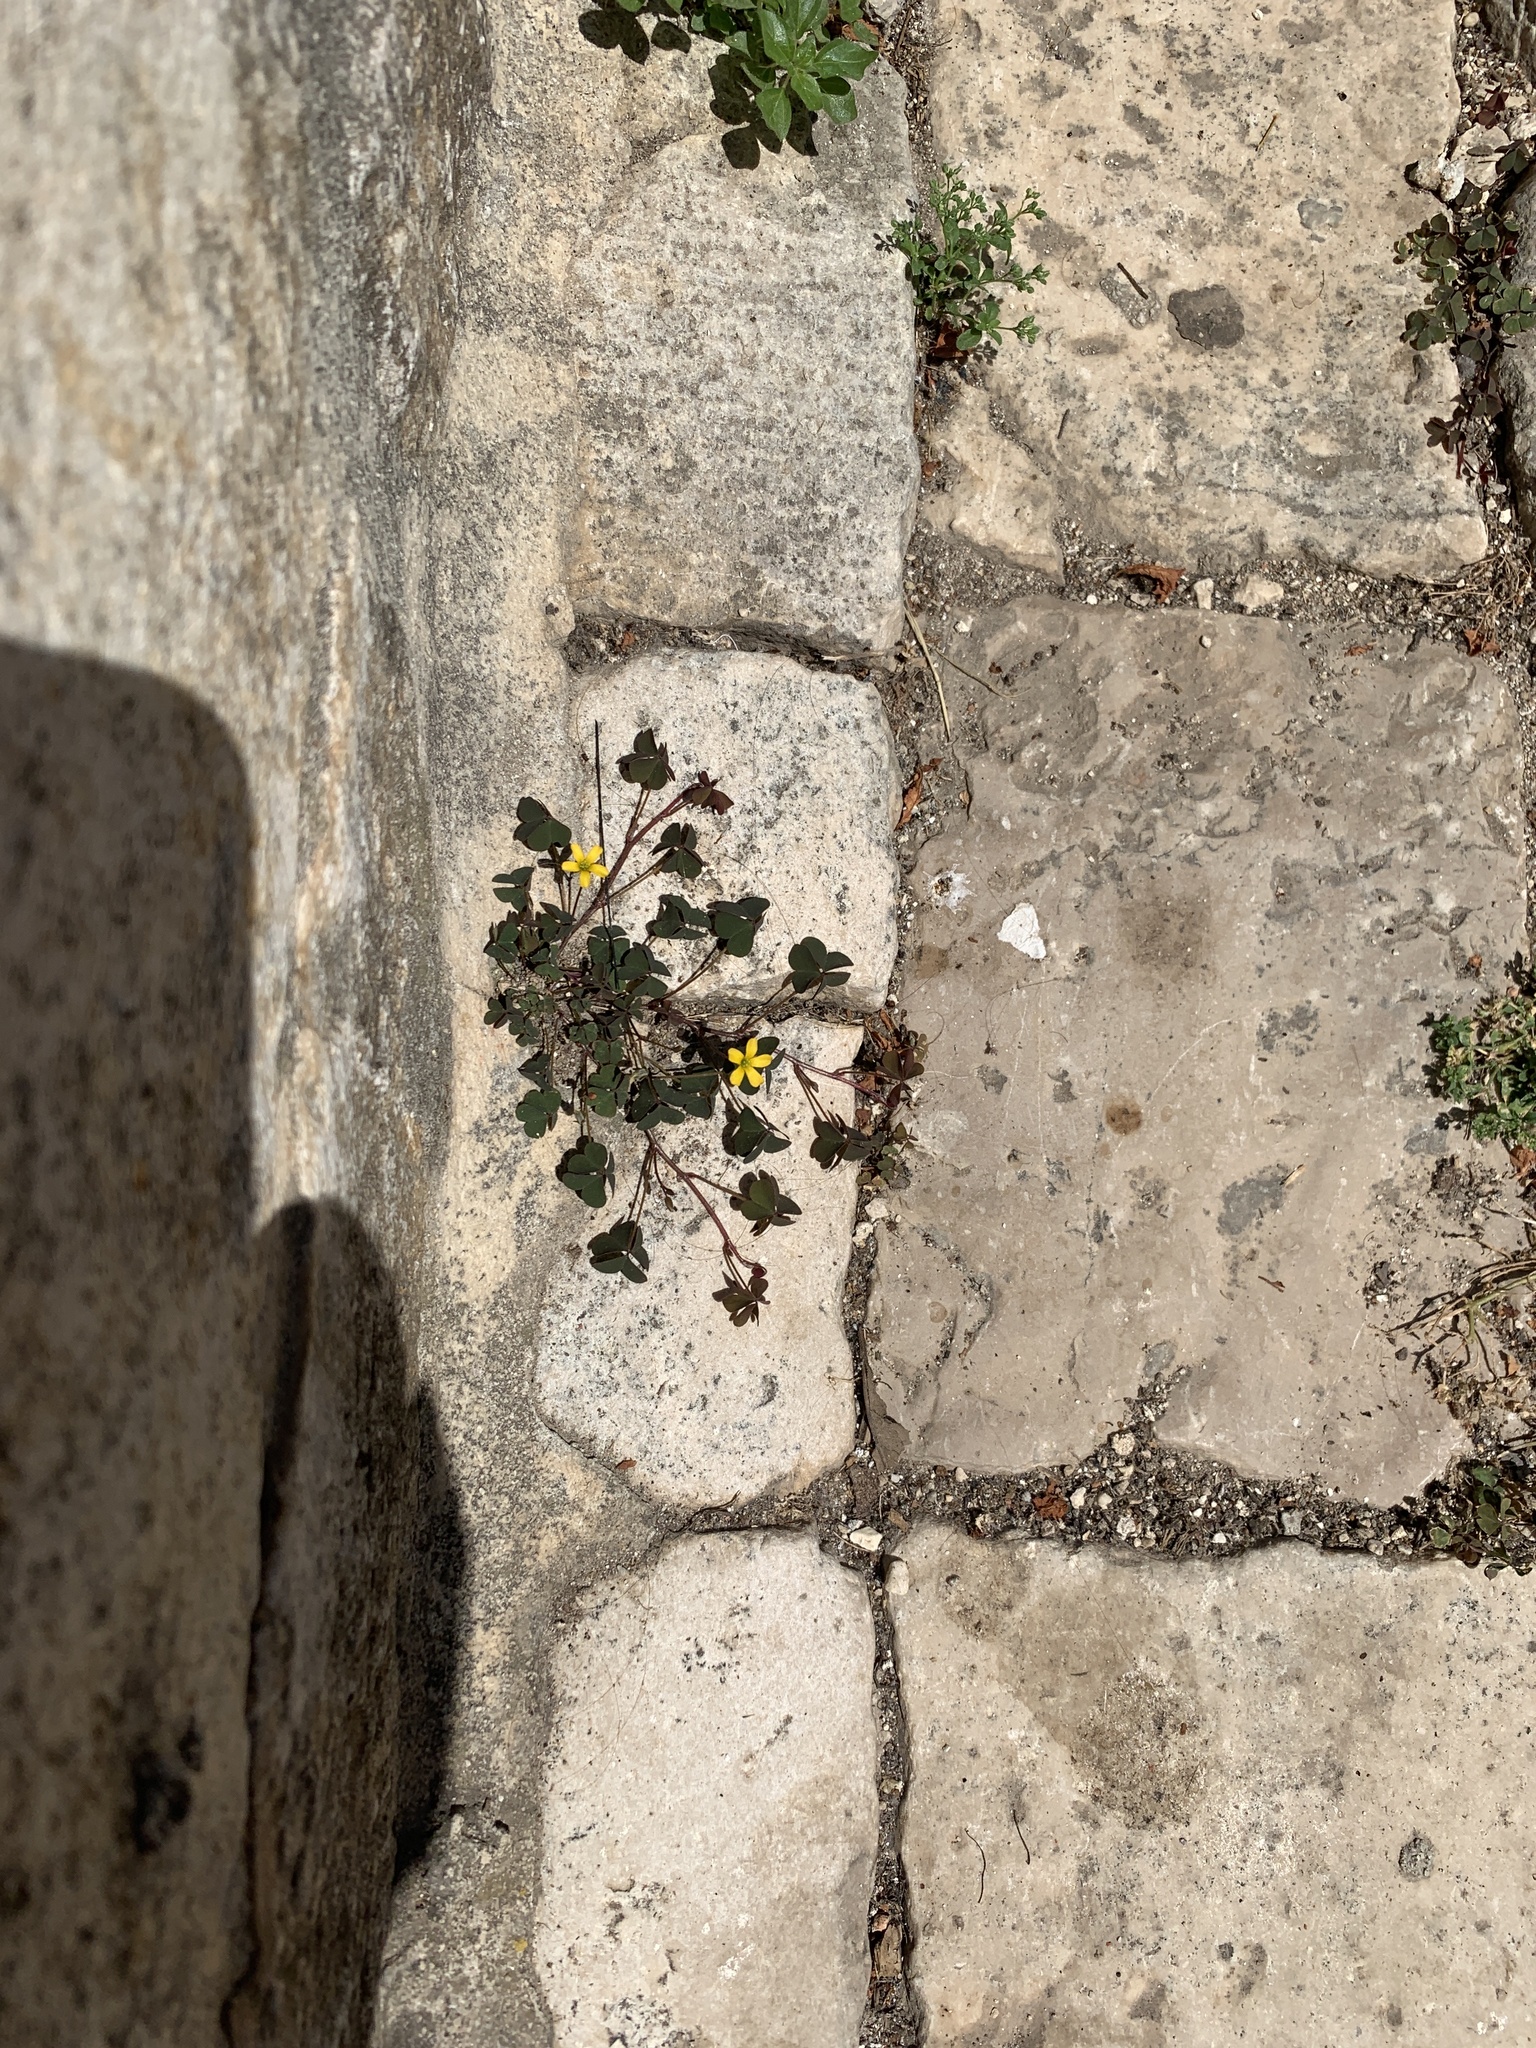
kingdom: Plantae
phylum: Tracheophyta
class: Magnoliopsida
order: Oxalidales
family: Oxalidaceae
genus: Oxalis
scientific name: Oxalis corniculata
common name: Procumbent yellow-sorrel
